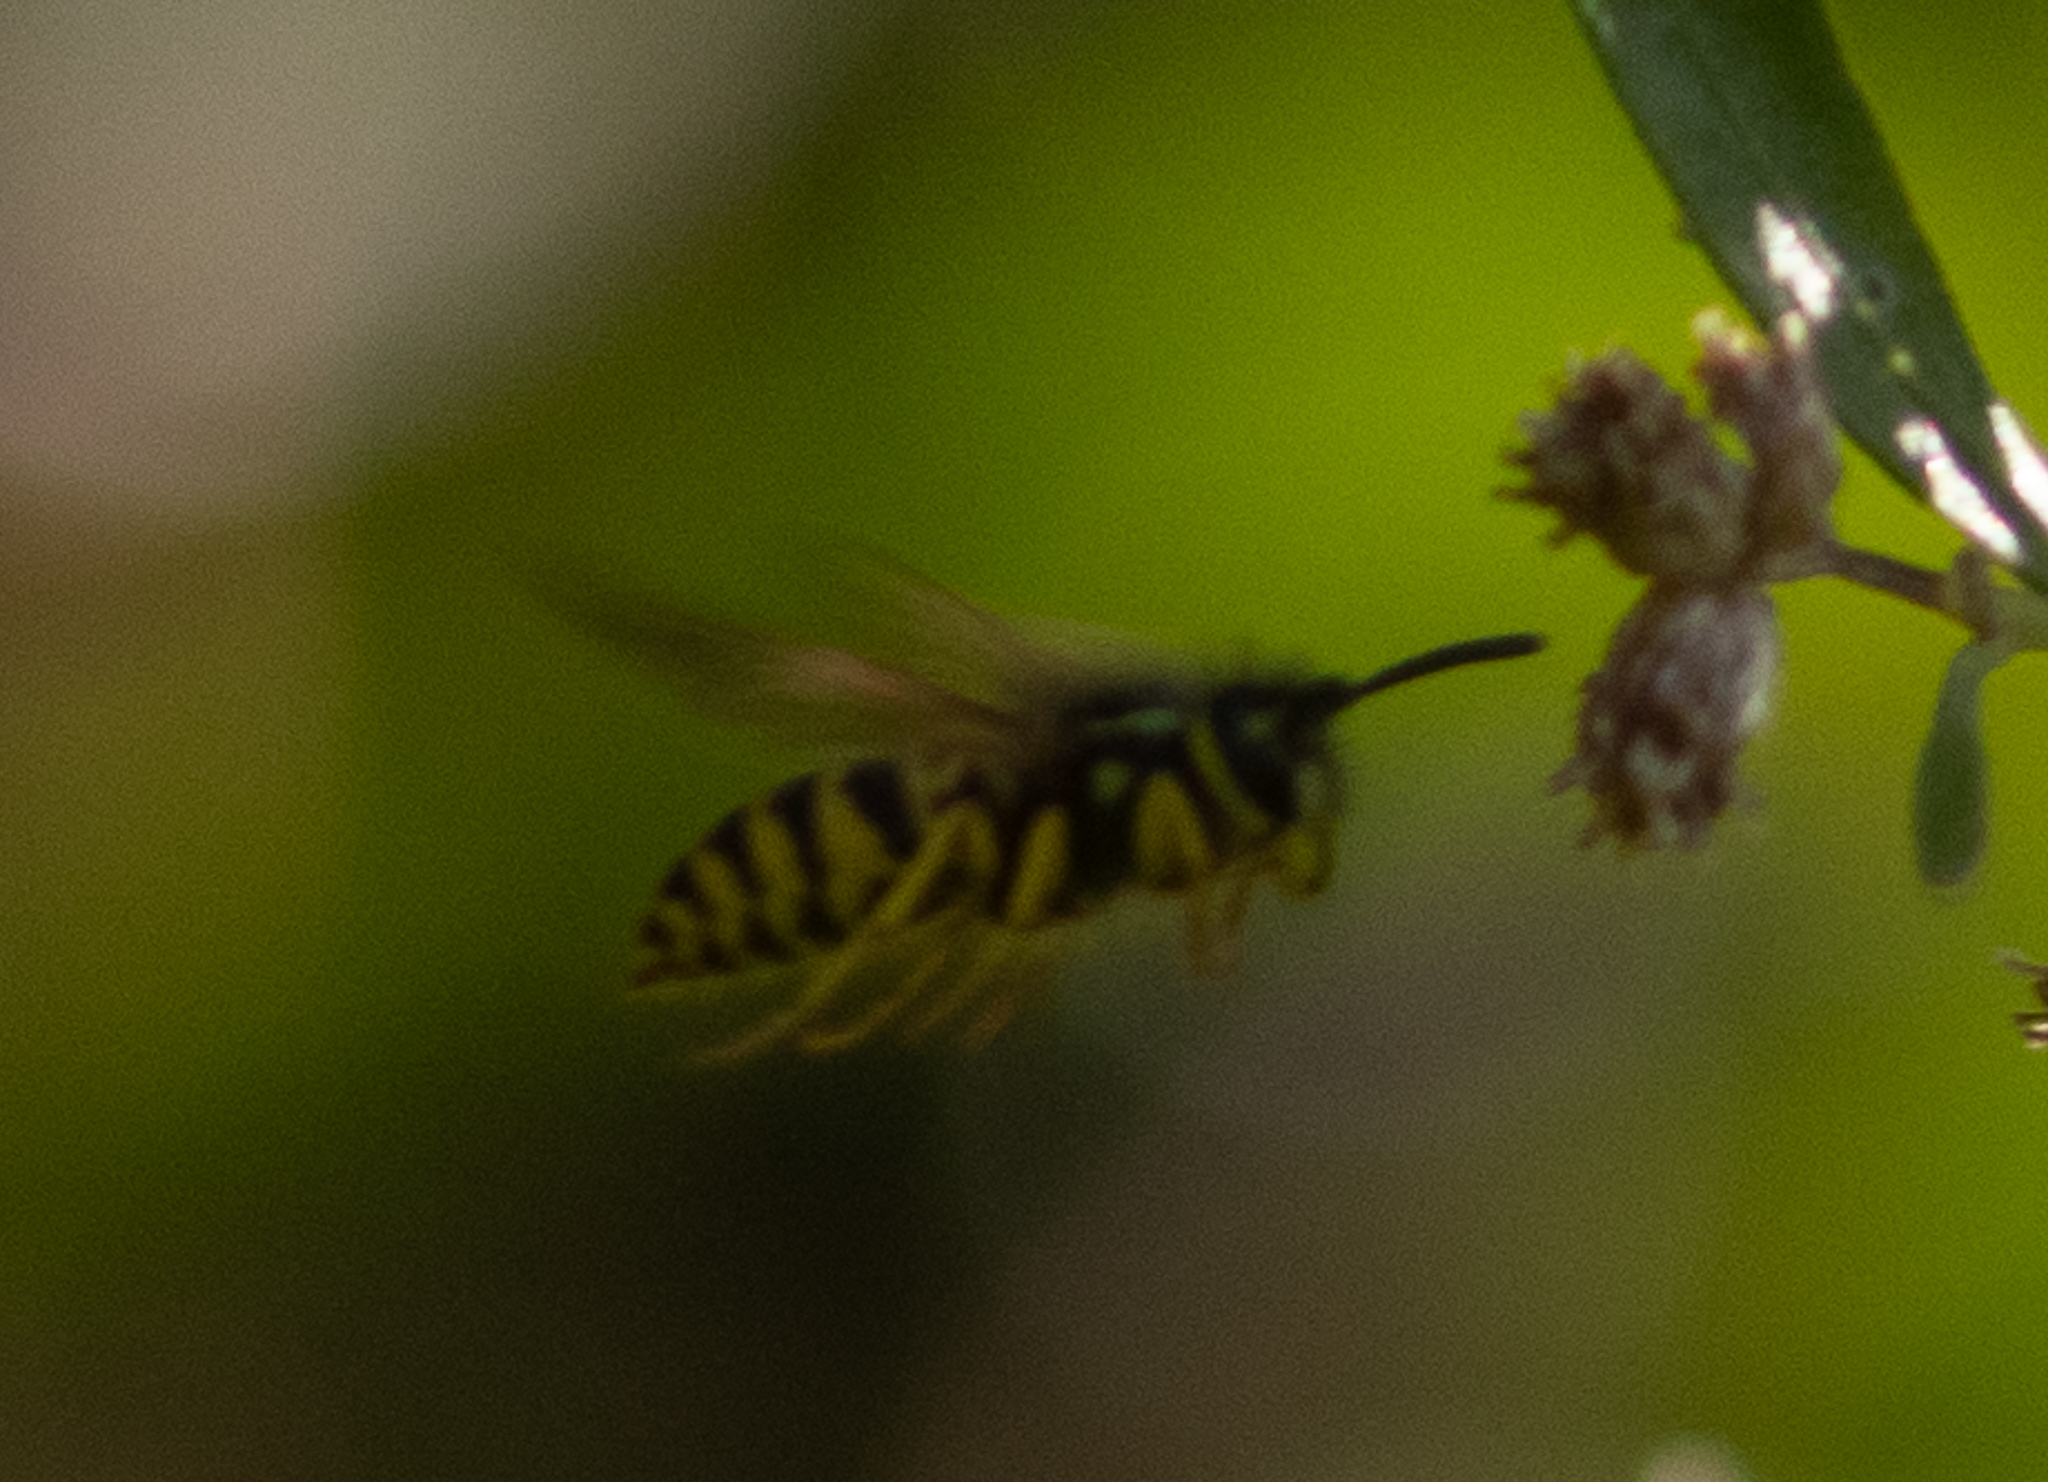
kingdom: Animalia
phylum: Arthropoda
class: Insecta
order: Hymenoptera
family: Vespidae
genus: Vespula
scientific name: Vespula maculifrons
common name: Eastern yellowjacket
